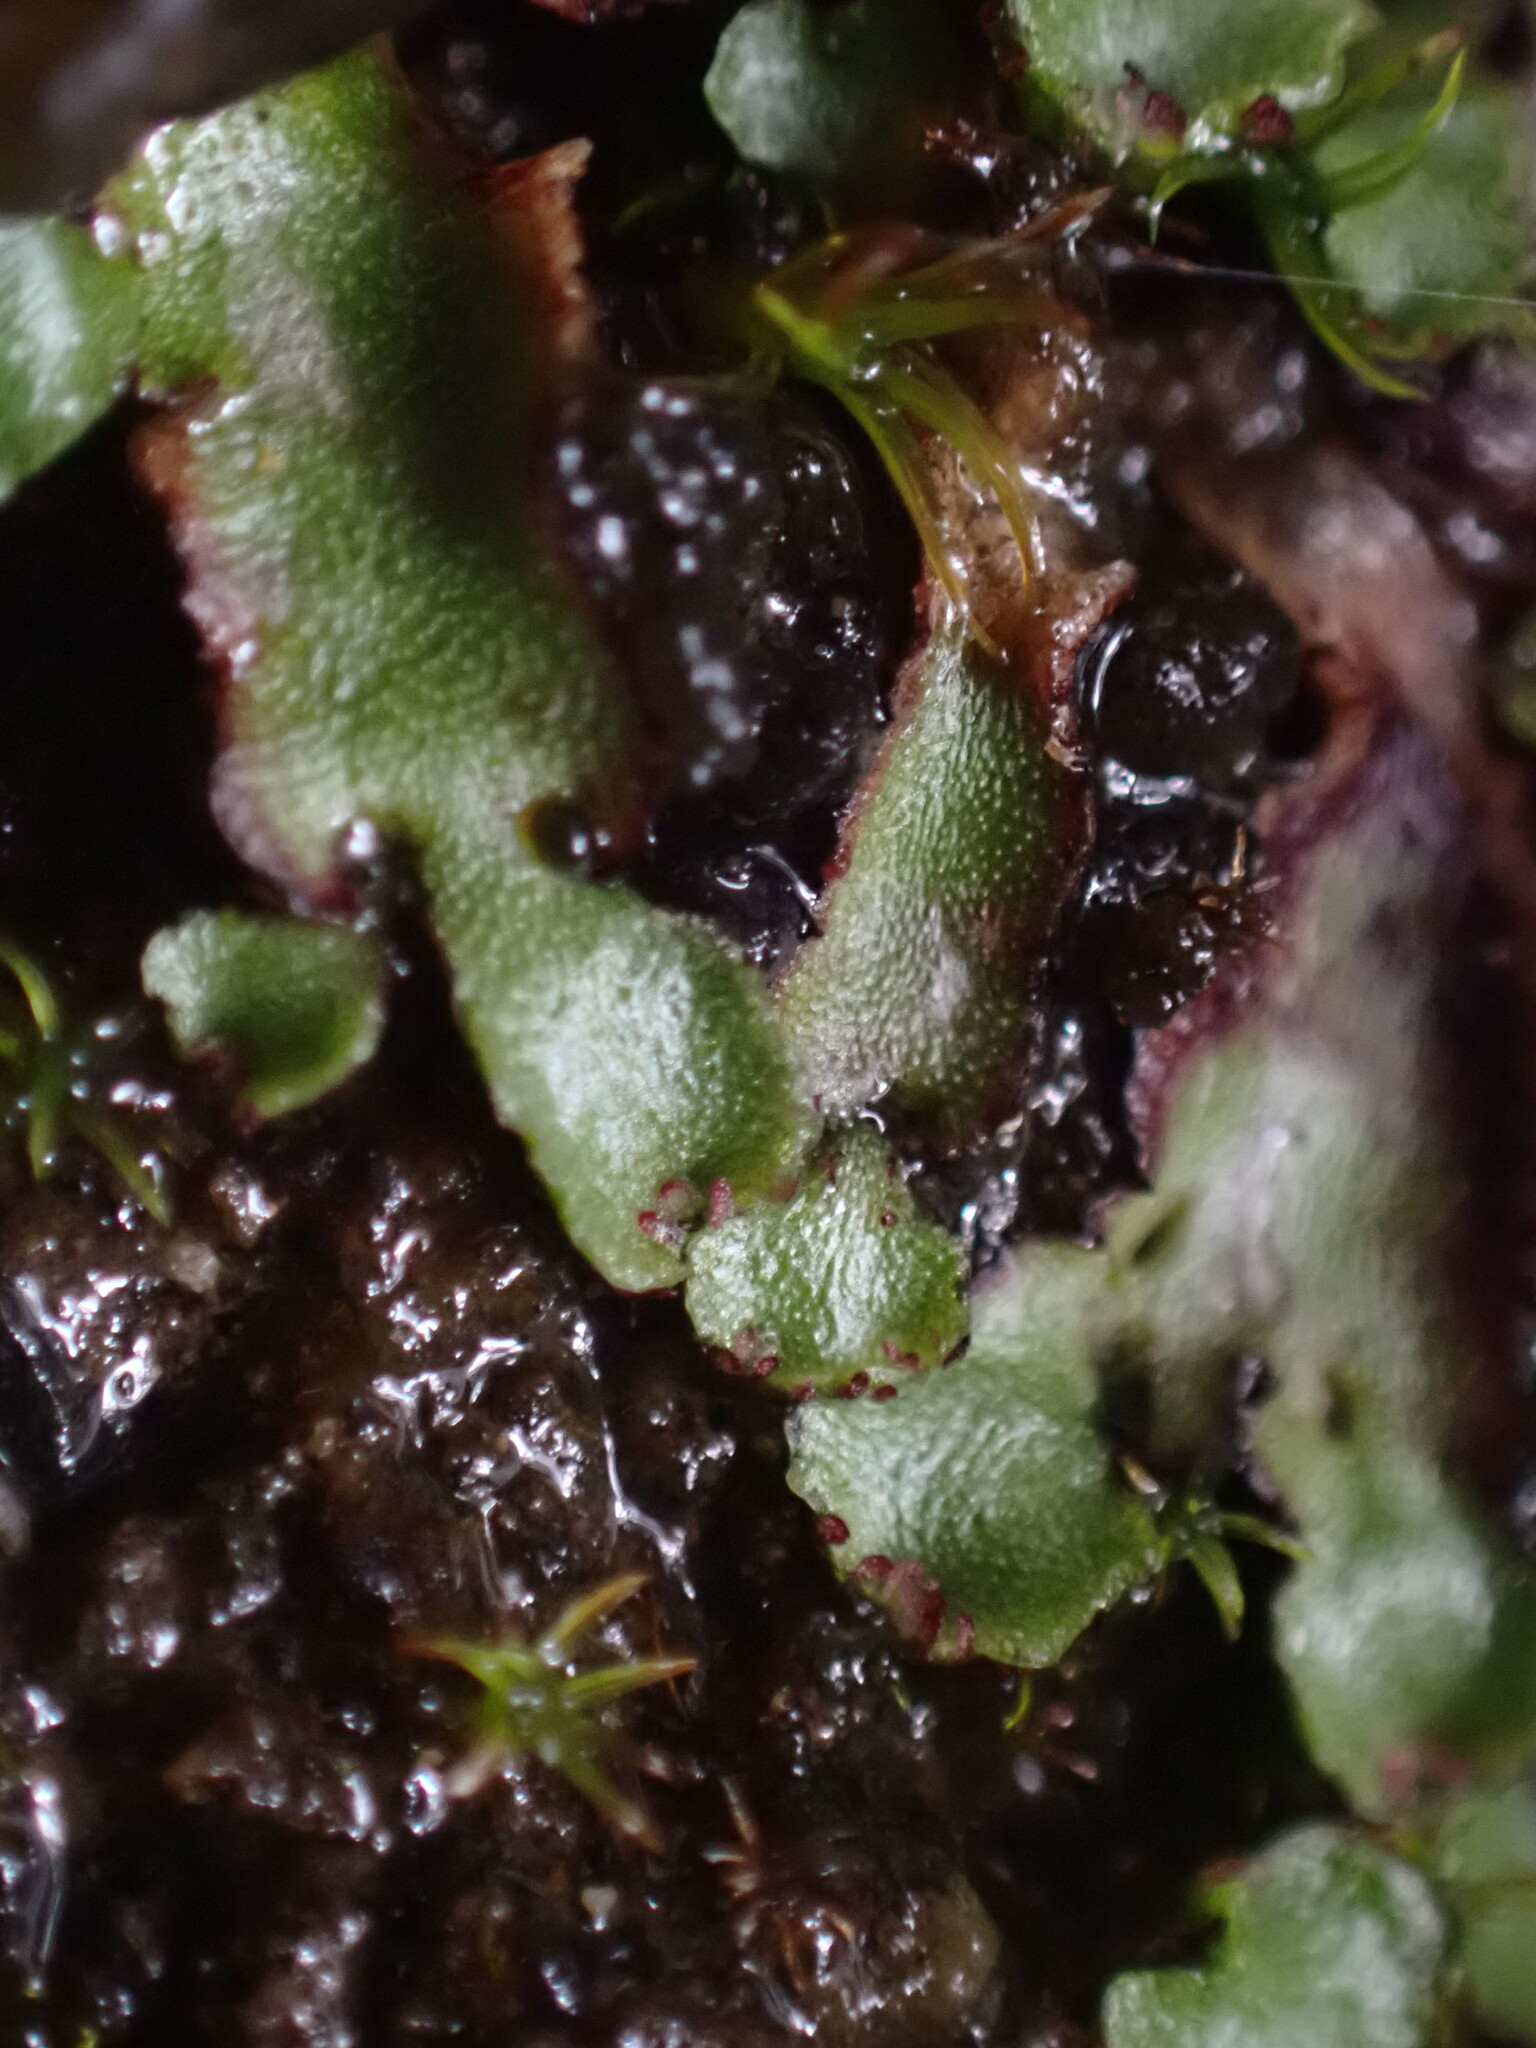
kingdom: Plantae
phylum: Marchantiophyta
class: Marchantiopsida
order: Marchantiales
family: Aytoniaceae
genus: Mannia
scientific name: Mannia gracilis
